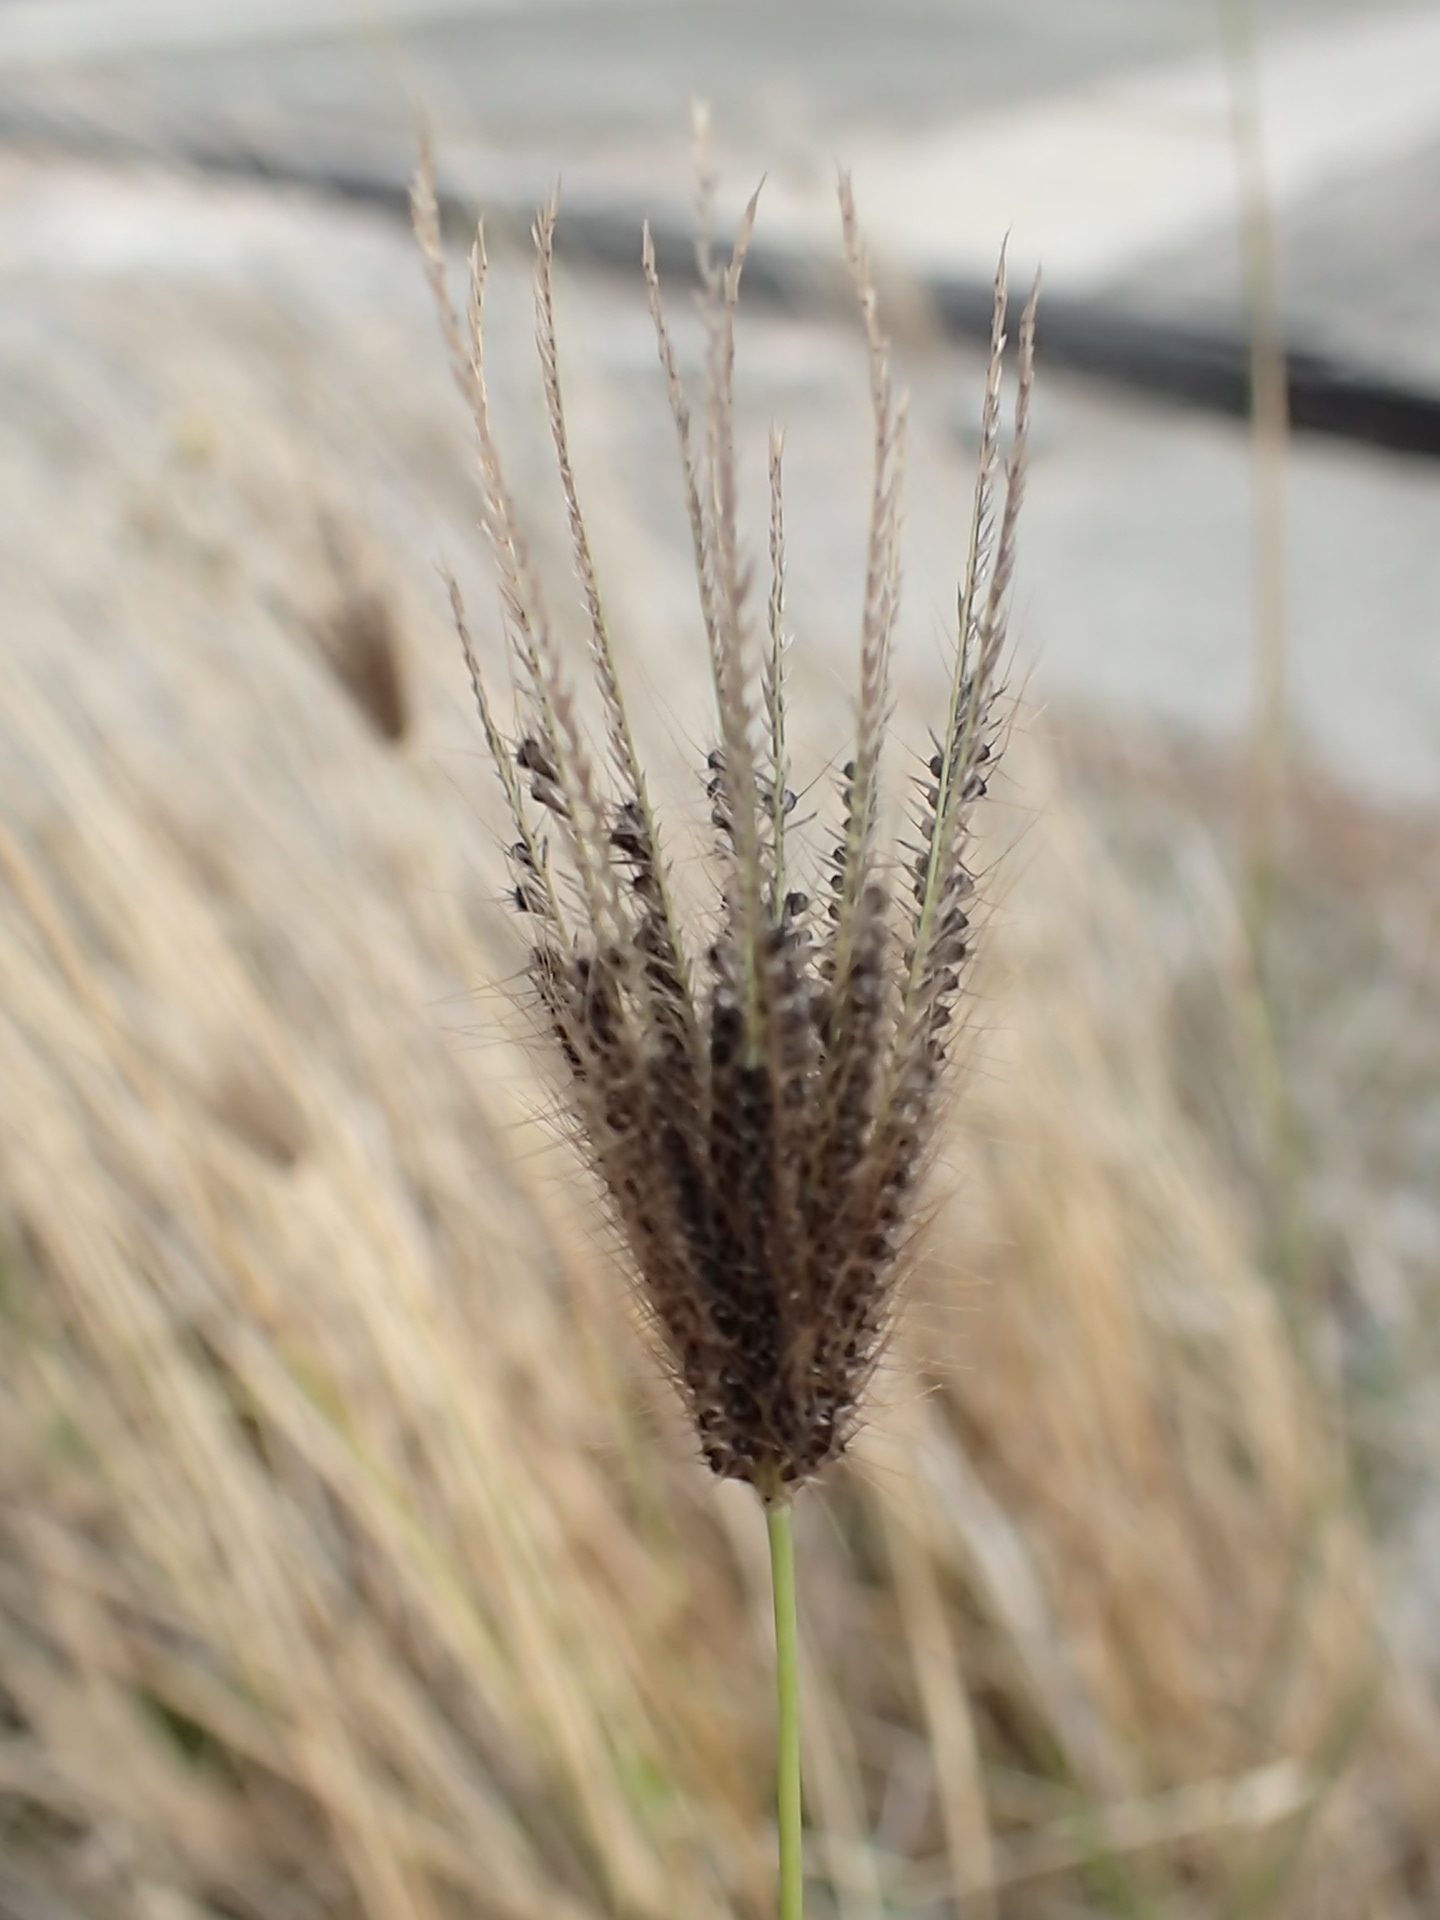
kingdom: Plantae
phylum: Tracheophyta
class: Liliopsida
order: Poales
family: Poaceae
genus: Chloris
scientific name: Chloris barbata
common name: Swollen fingergrass
